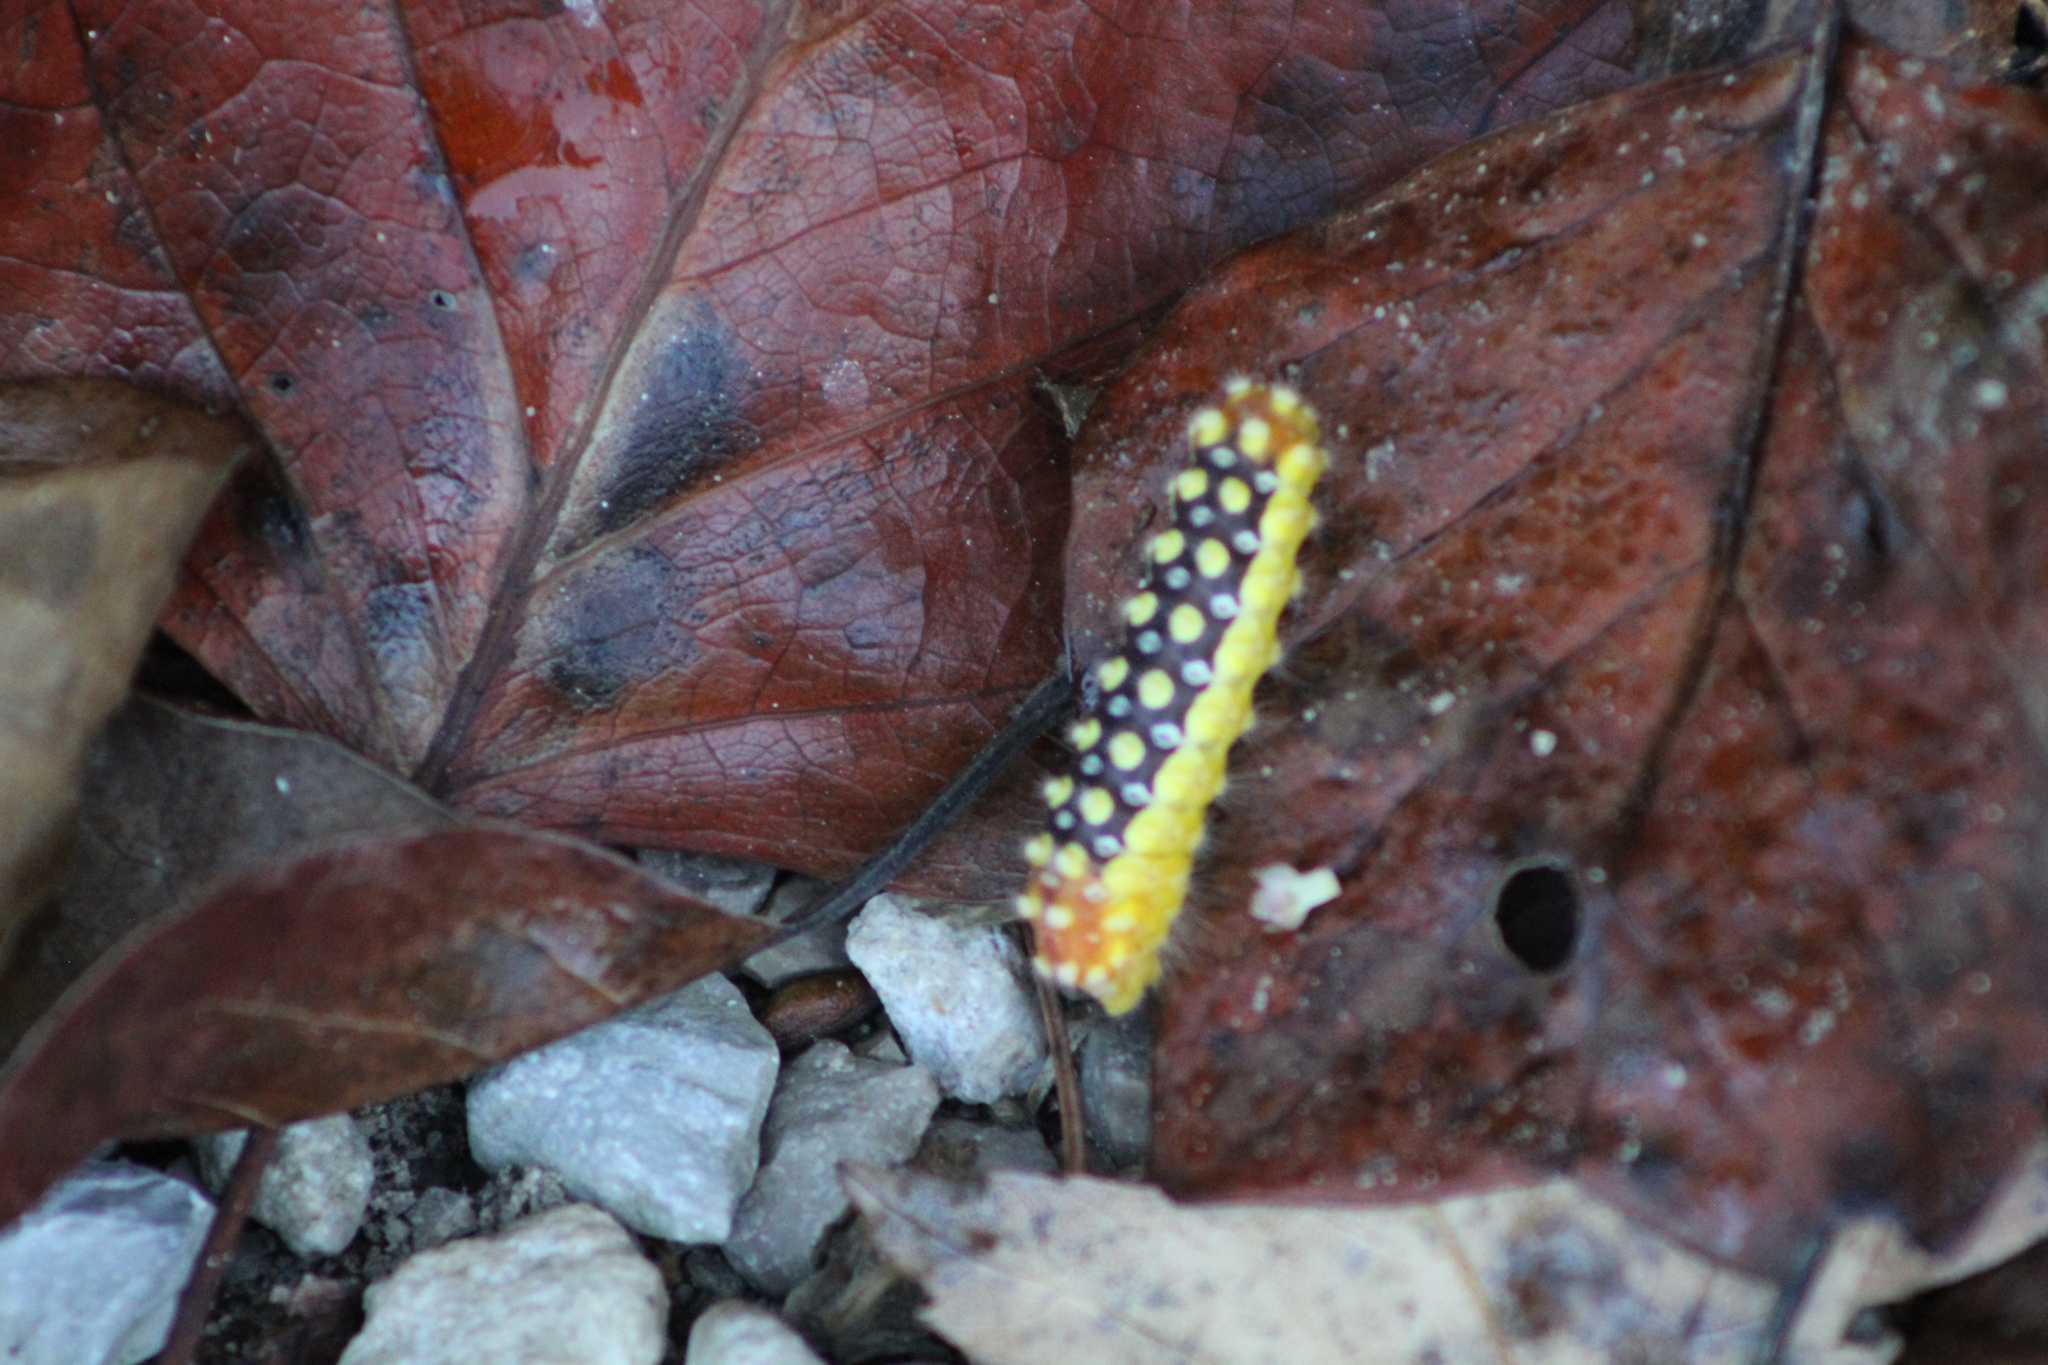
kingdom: Animalia
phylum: Arthropoda
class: Insecta
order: Lepidoptera
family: Megalopygidae
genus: Norape
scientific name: Norape cretata
